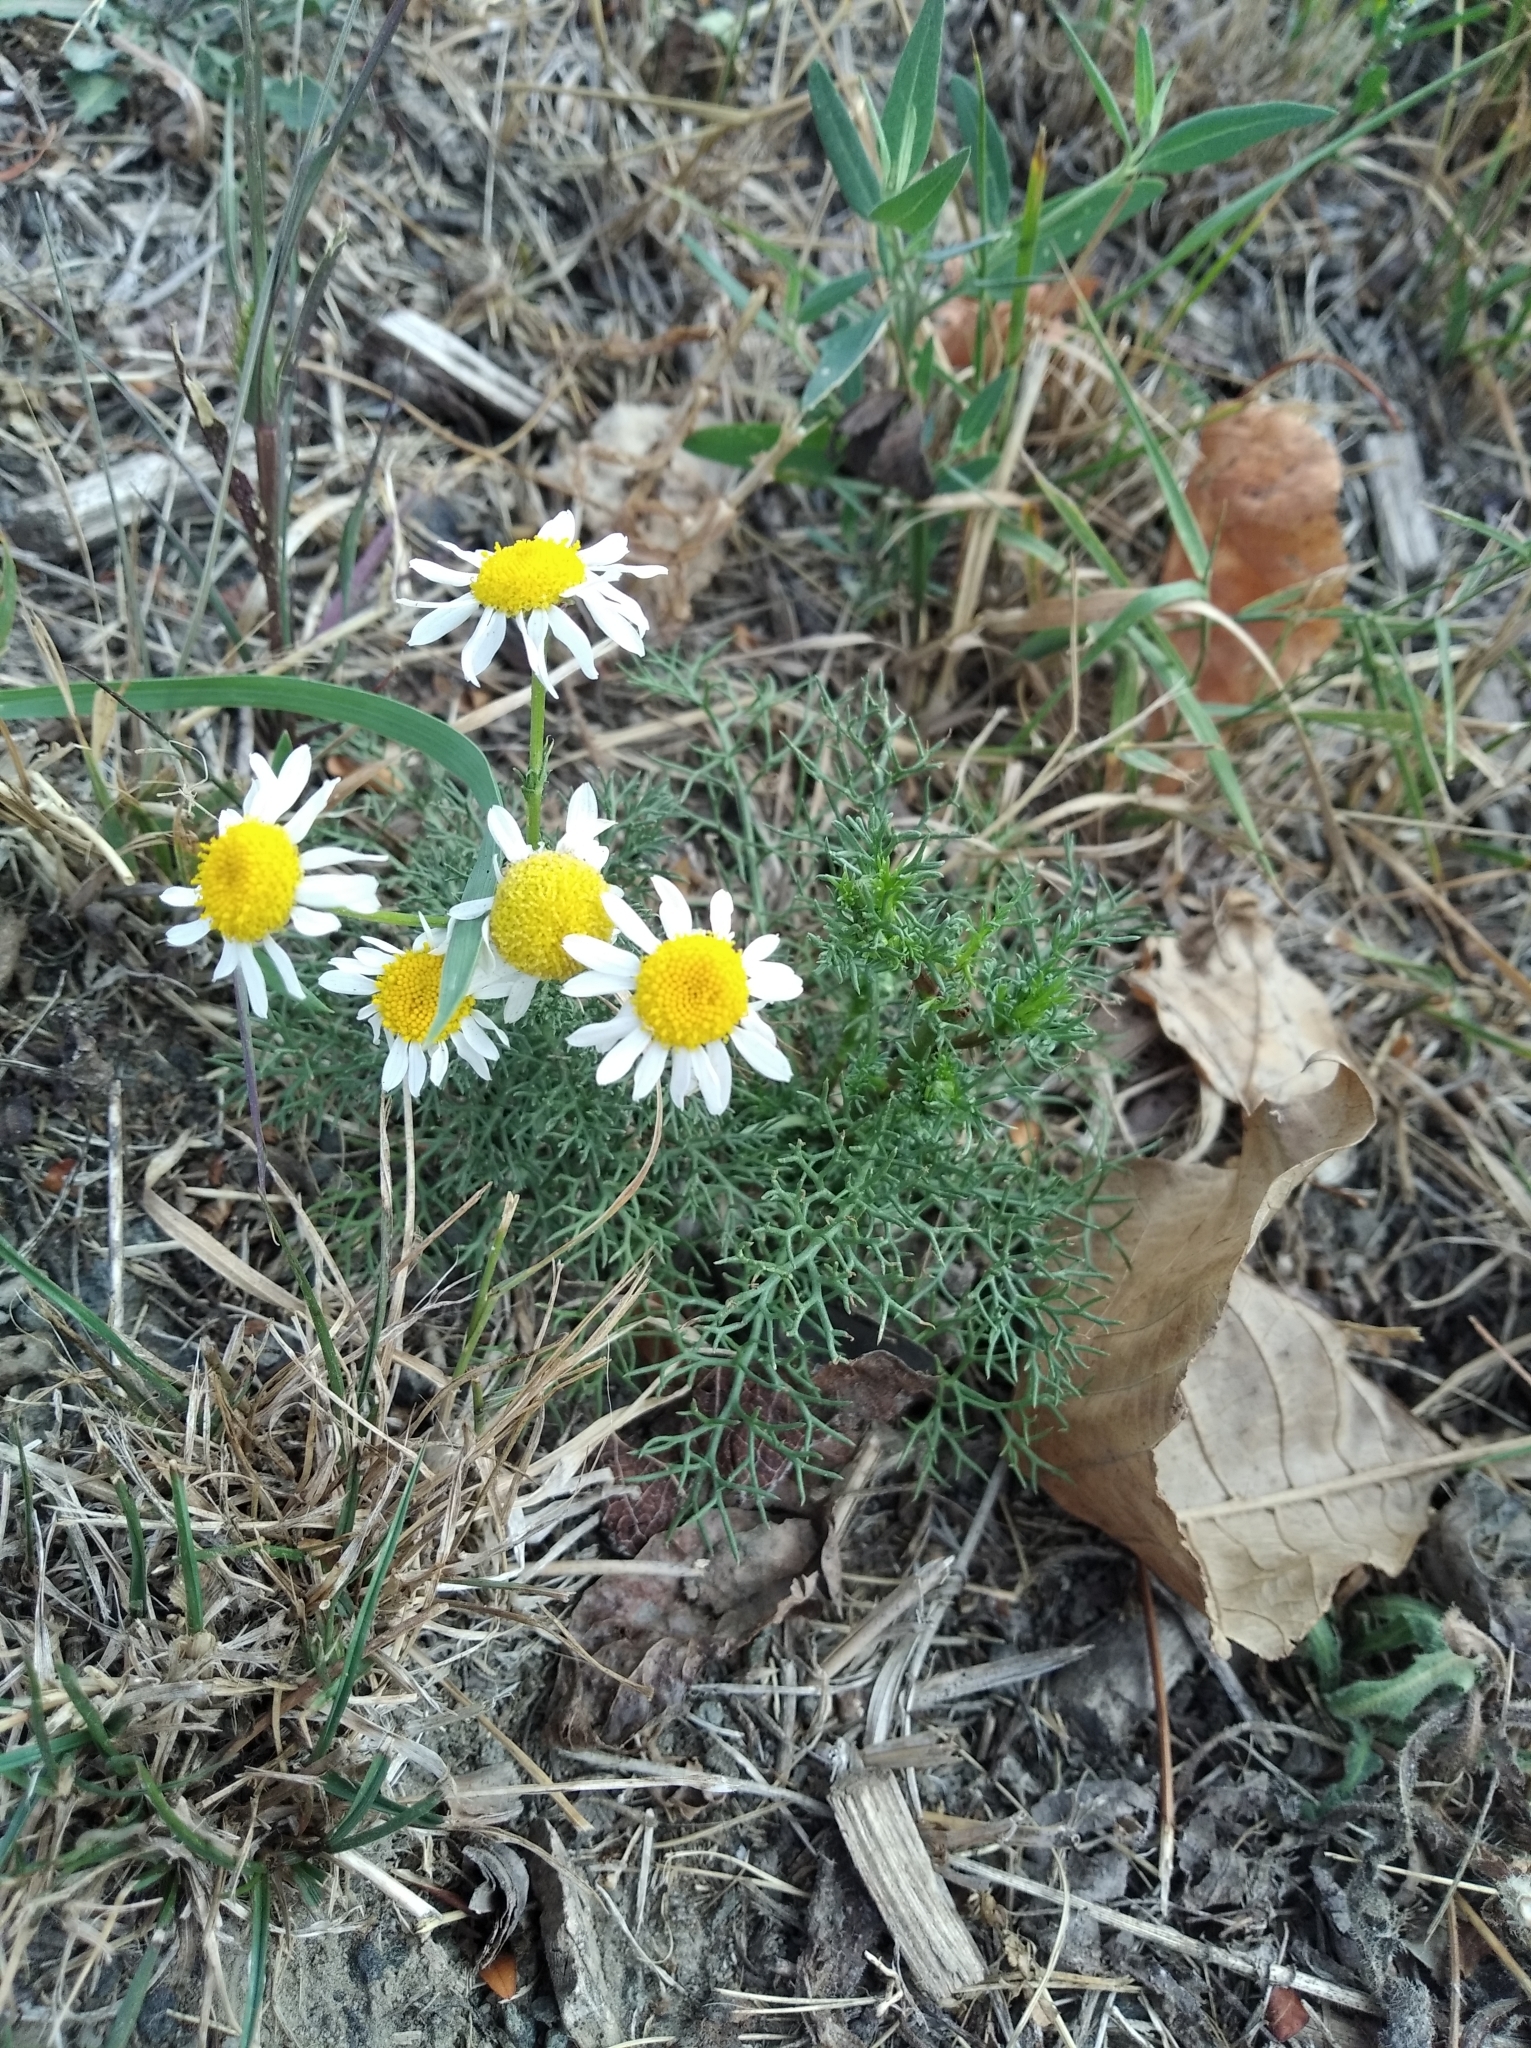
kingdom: Plantae
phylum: Tracheophyta
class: Magnoliopsida
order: Asterales
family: Asteraceae
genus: Tripleurospermum
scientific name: Tripleurospermum inodorum
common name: Scentless mayweed
